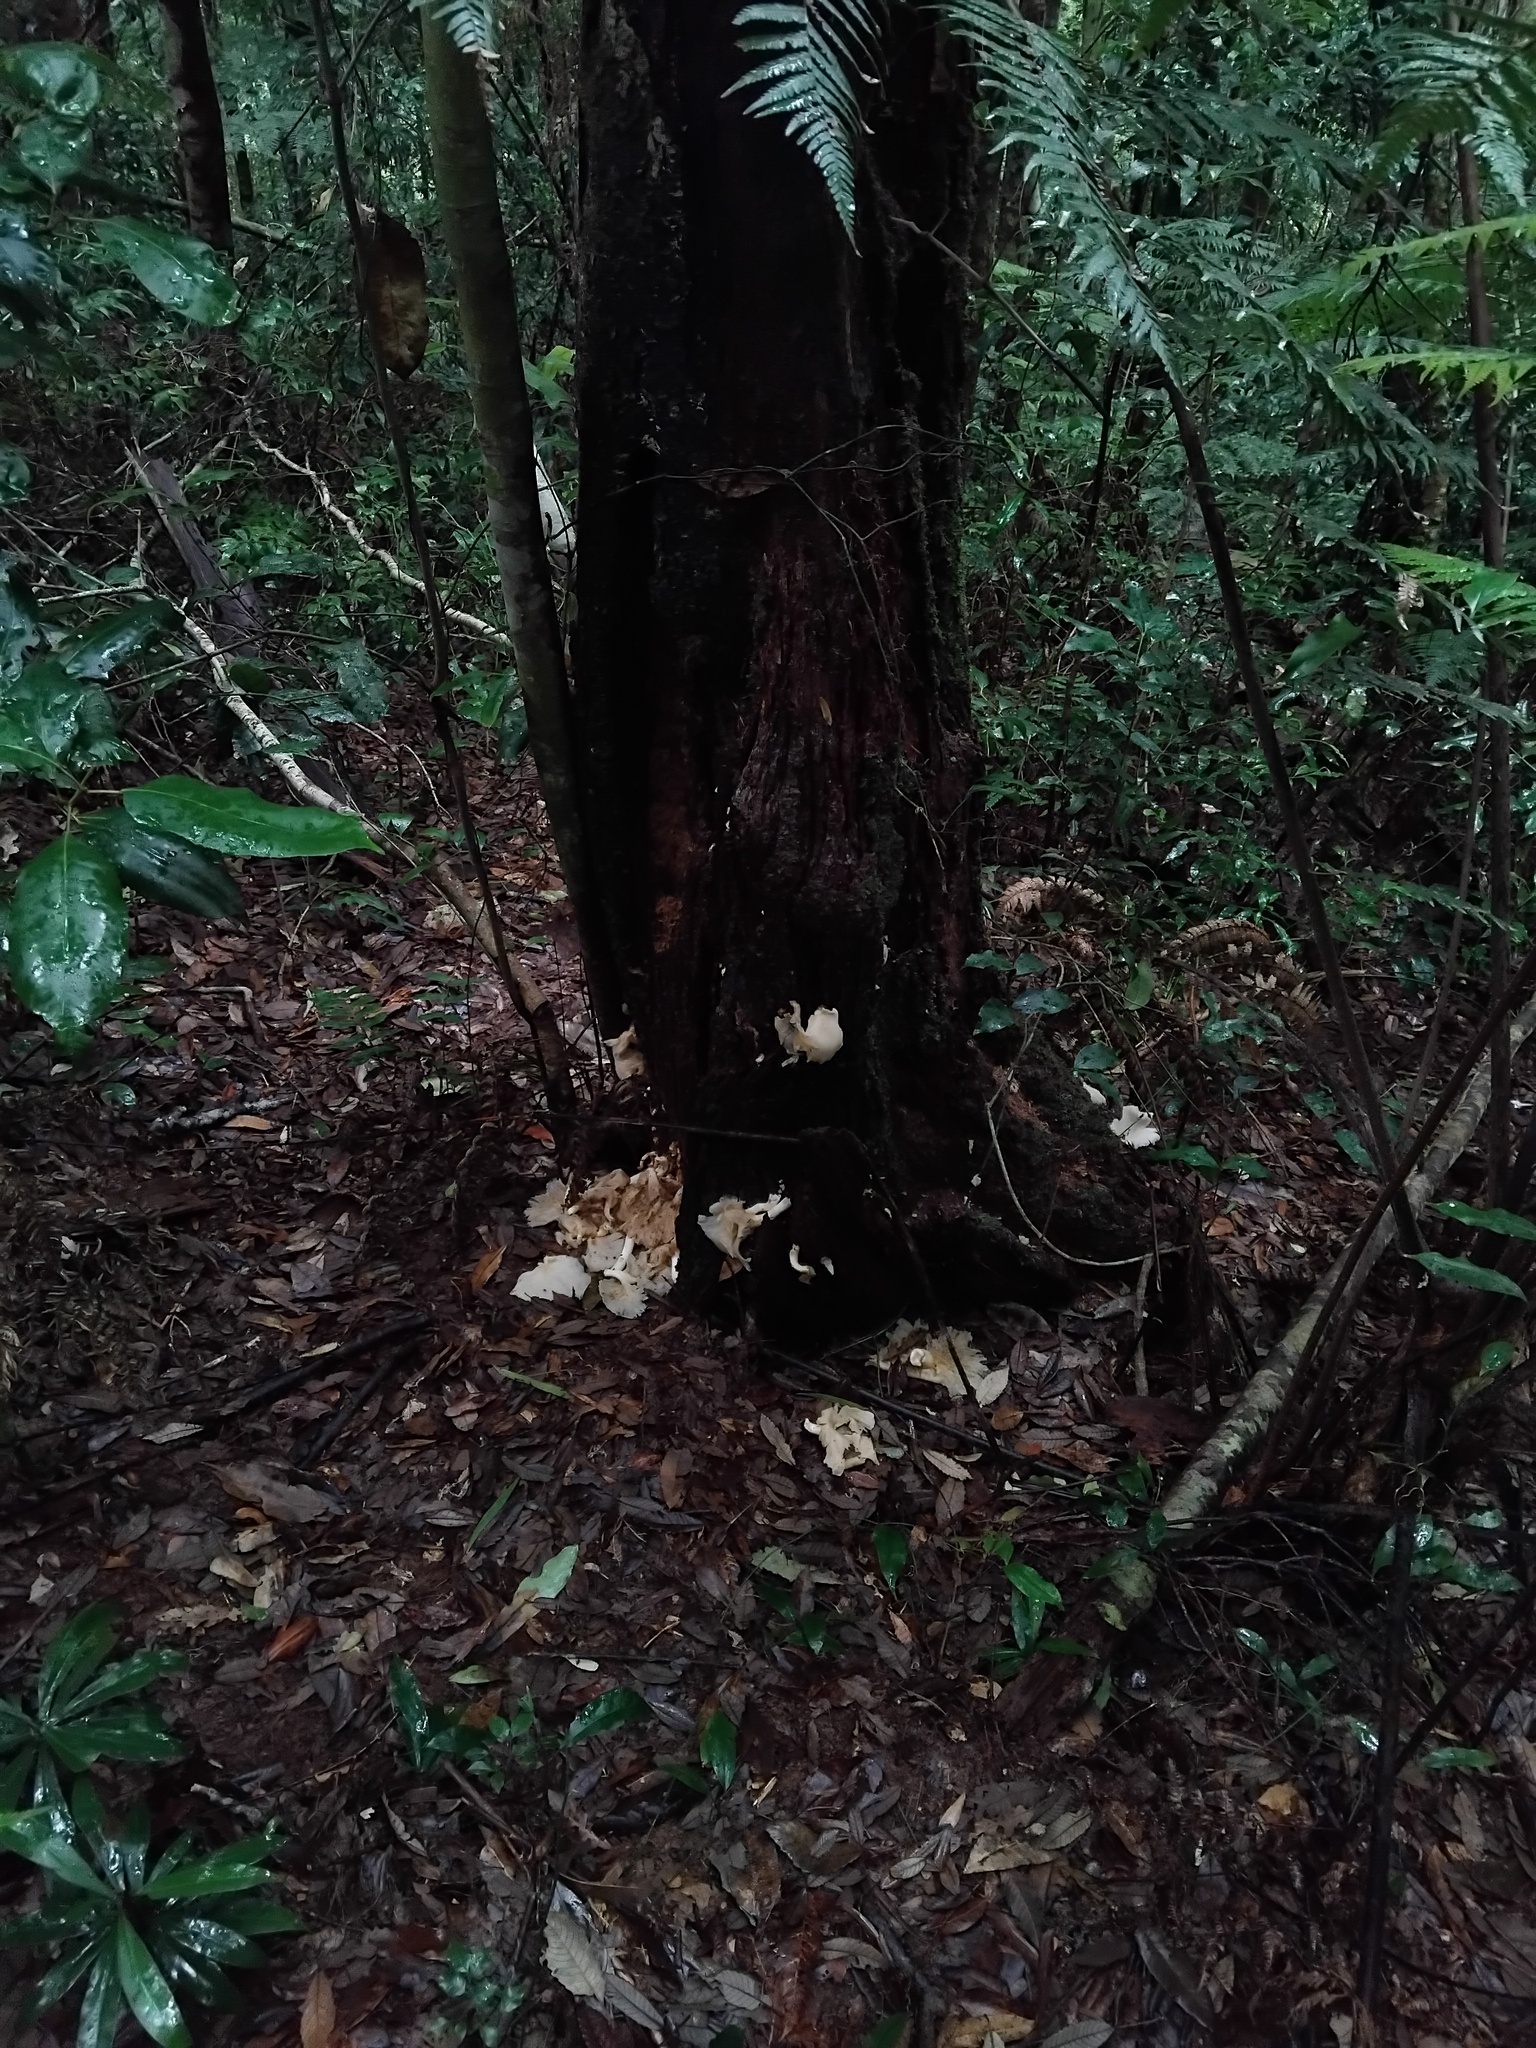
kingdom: Fungi
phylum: Basidiomycota
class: Agaricomycetes
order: Agaricales
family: Omphalotaceae
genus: Omphalotus
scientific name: Omphalotus nidiformis
